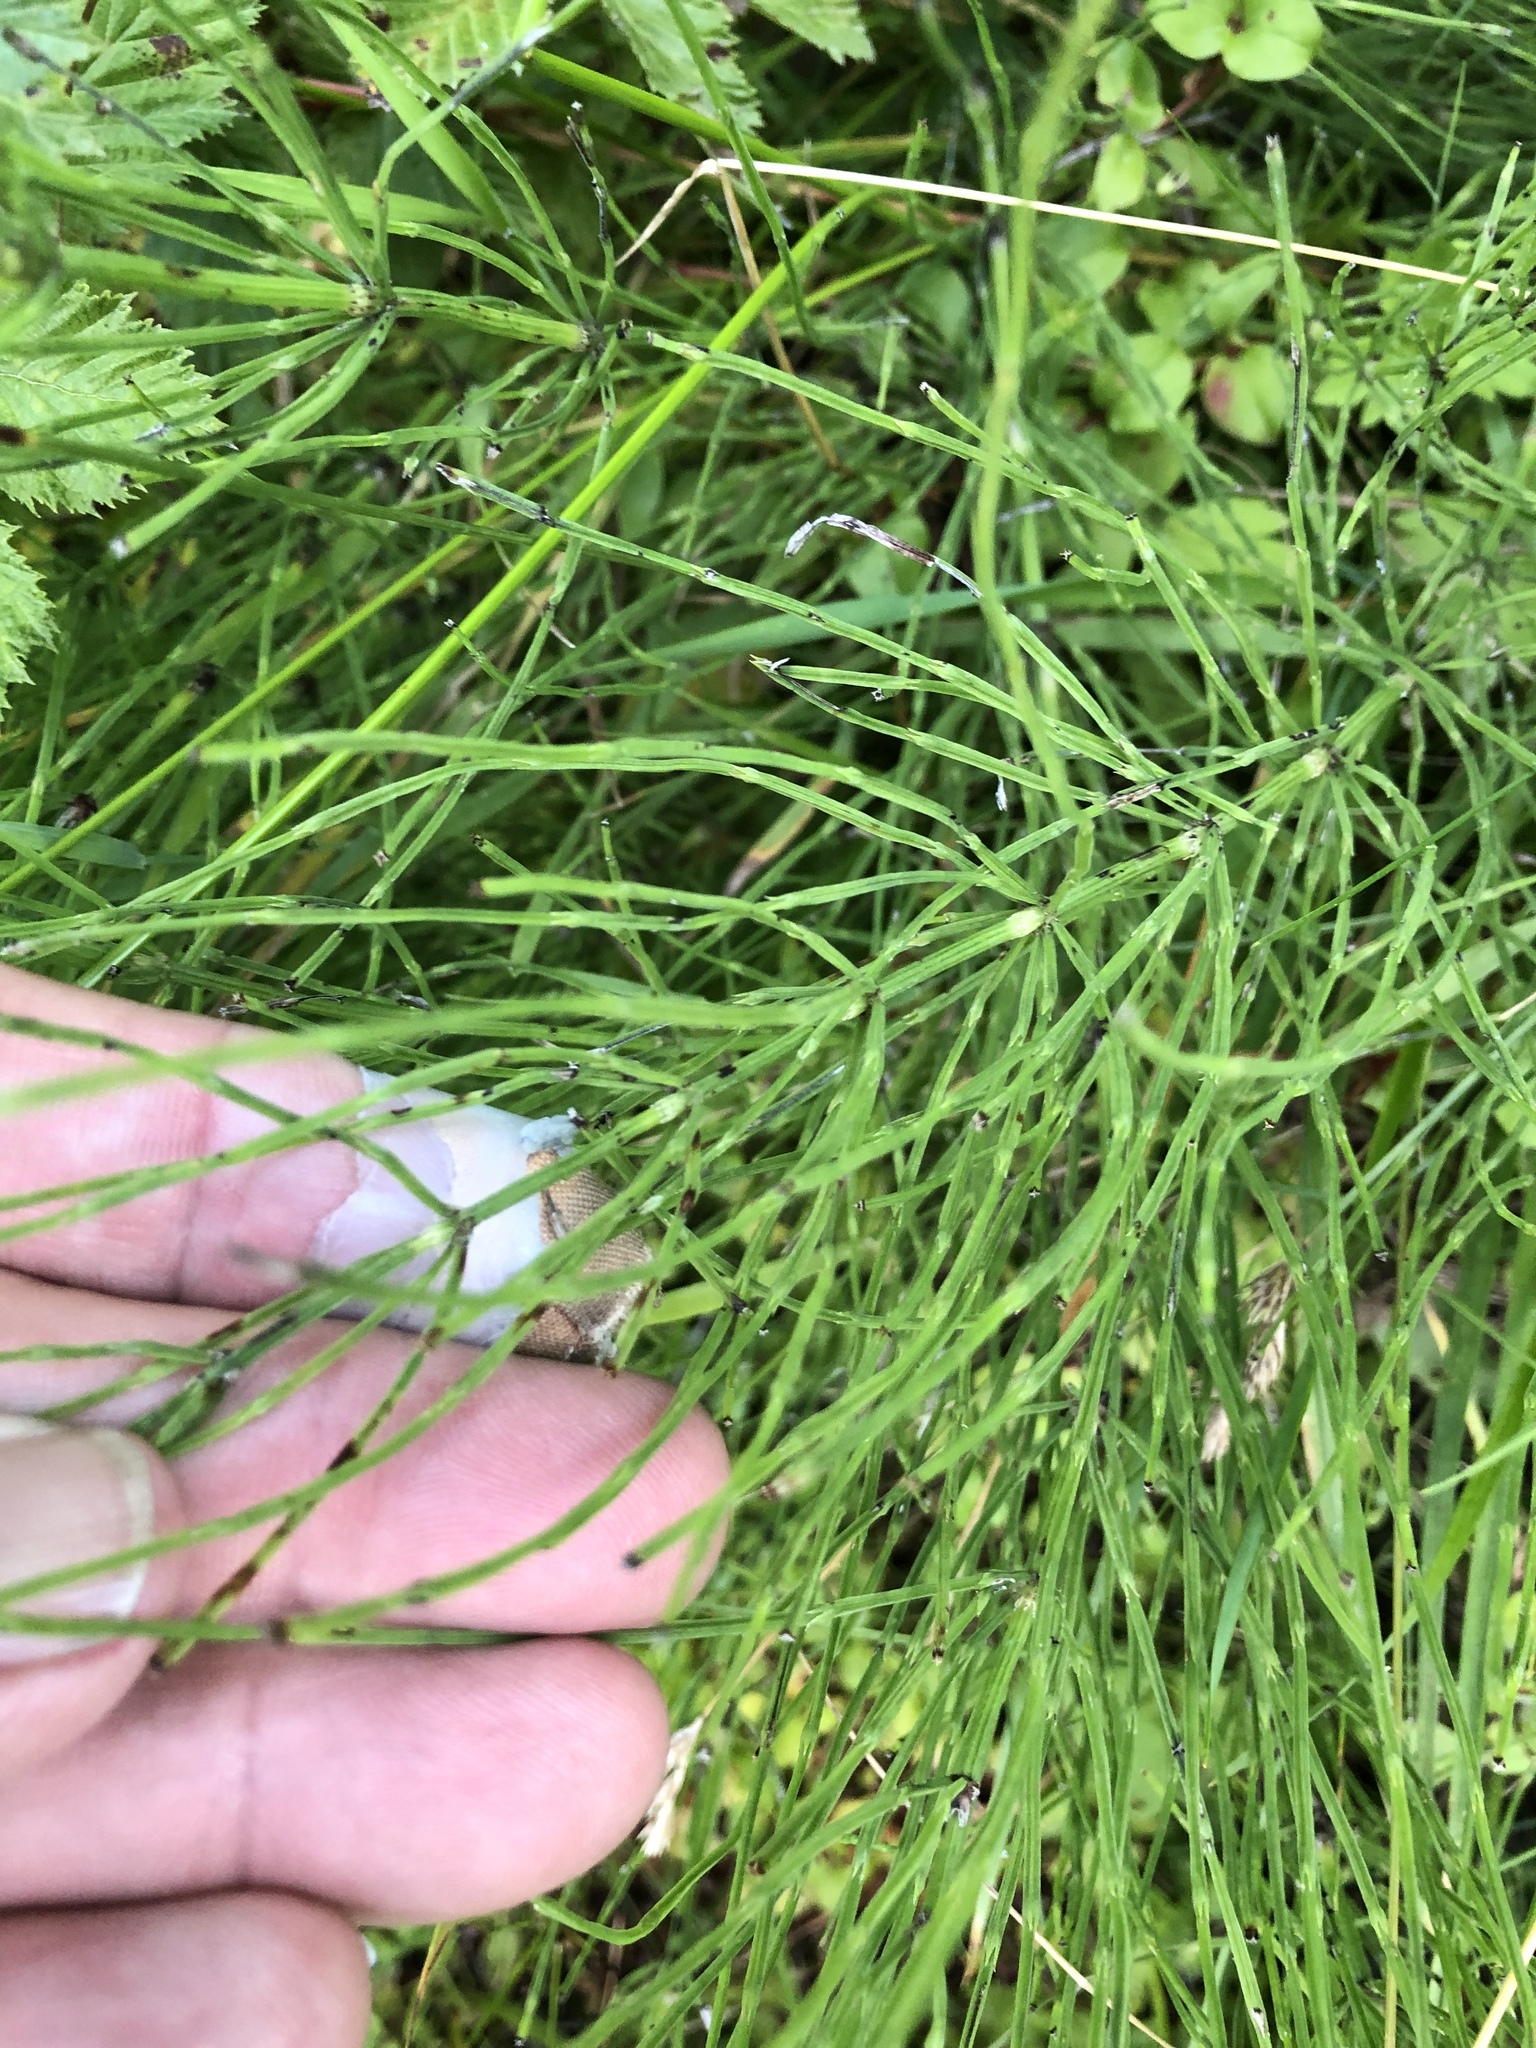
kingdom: Plantae
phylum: Tracheophyta
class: Polypodiopsida
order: Equisetales
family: Equisetaceae
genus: Equisetum
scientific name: Equisetum arvense
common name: Field horsetail
